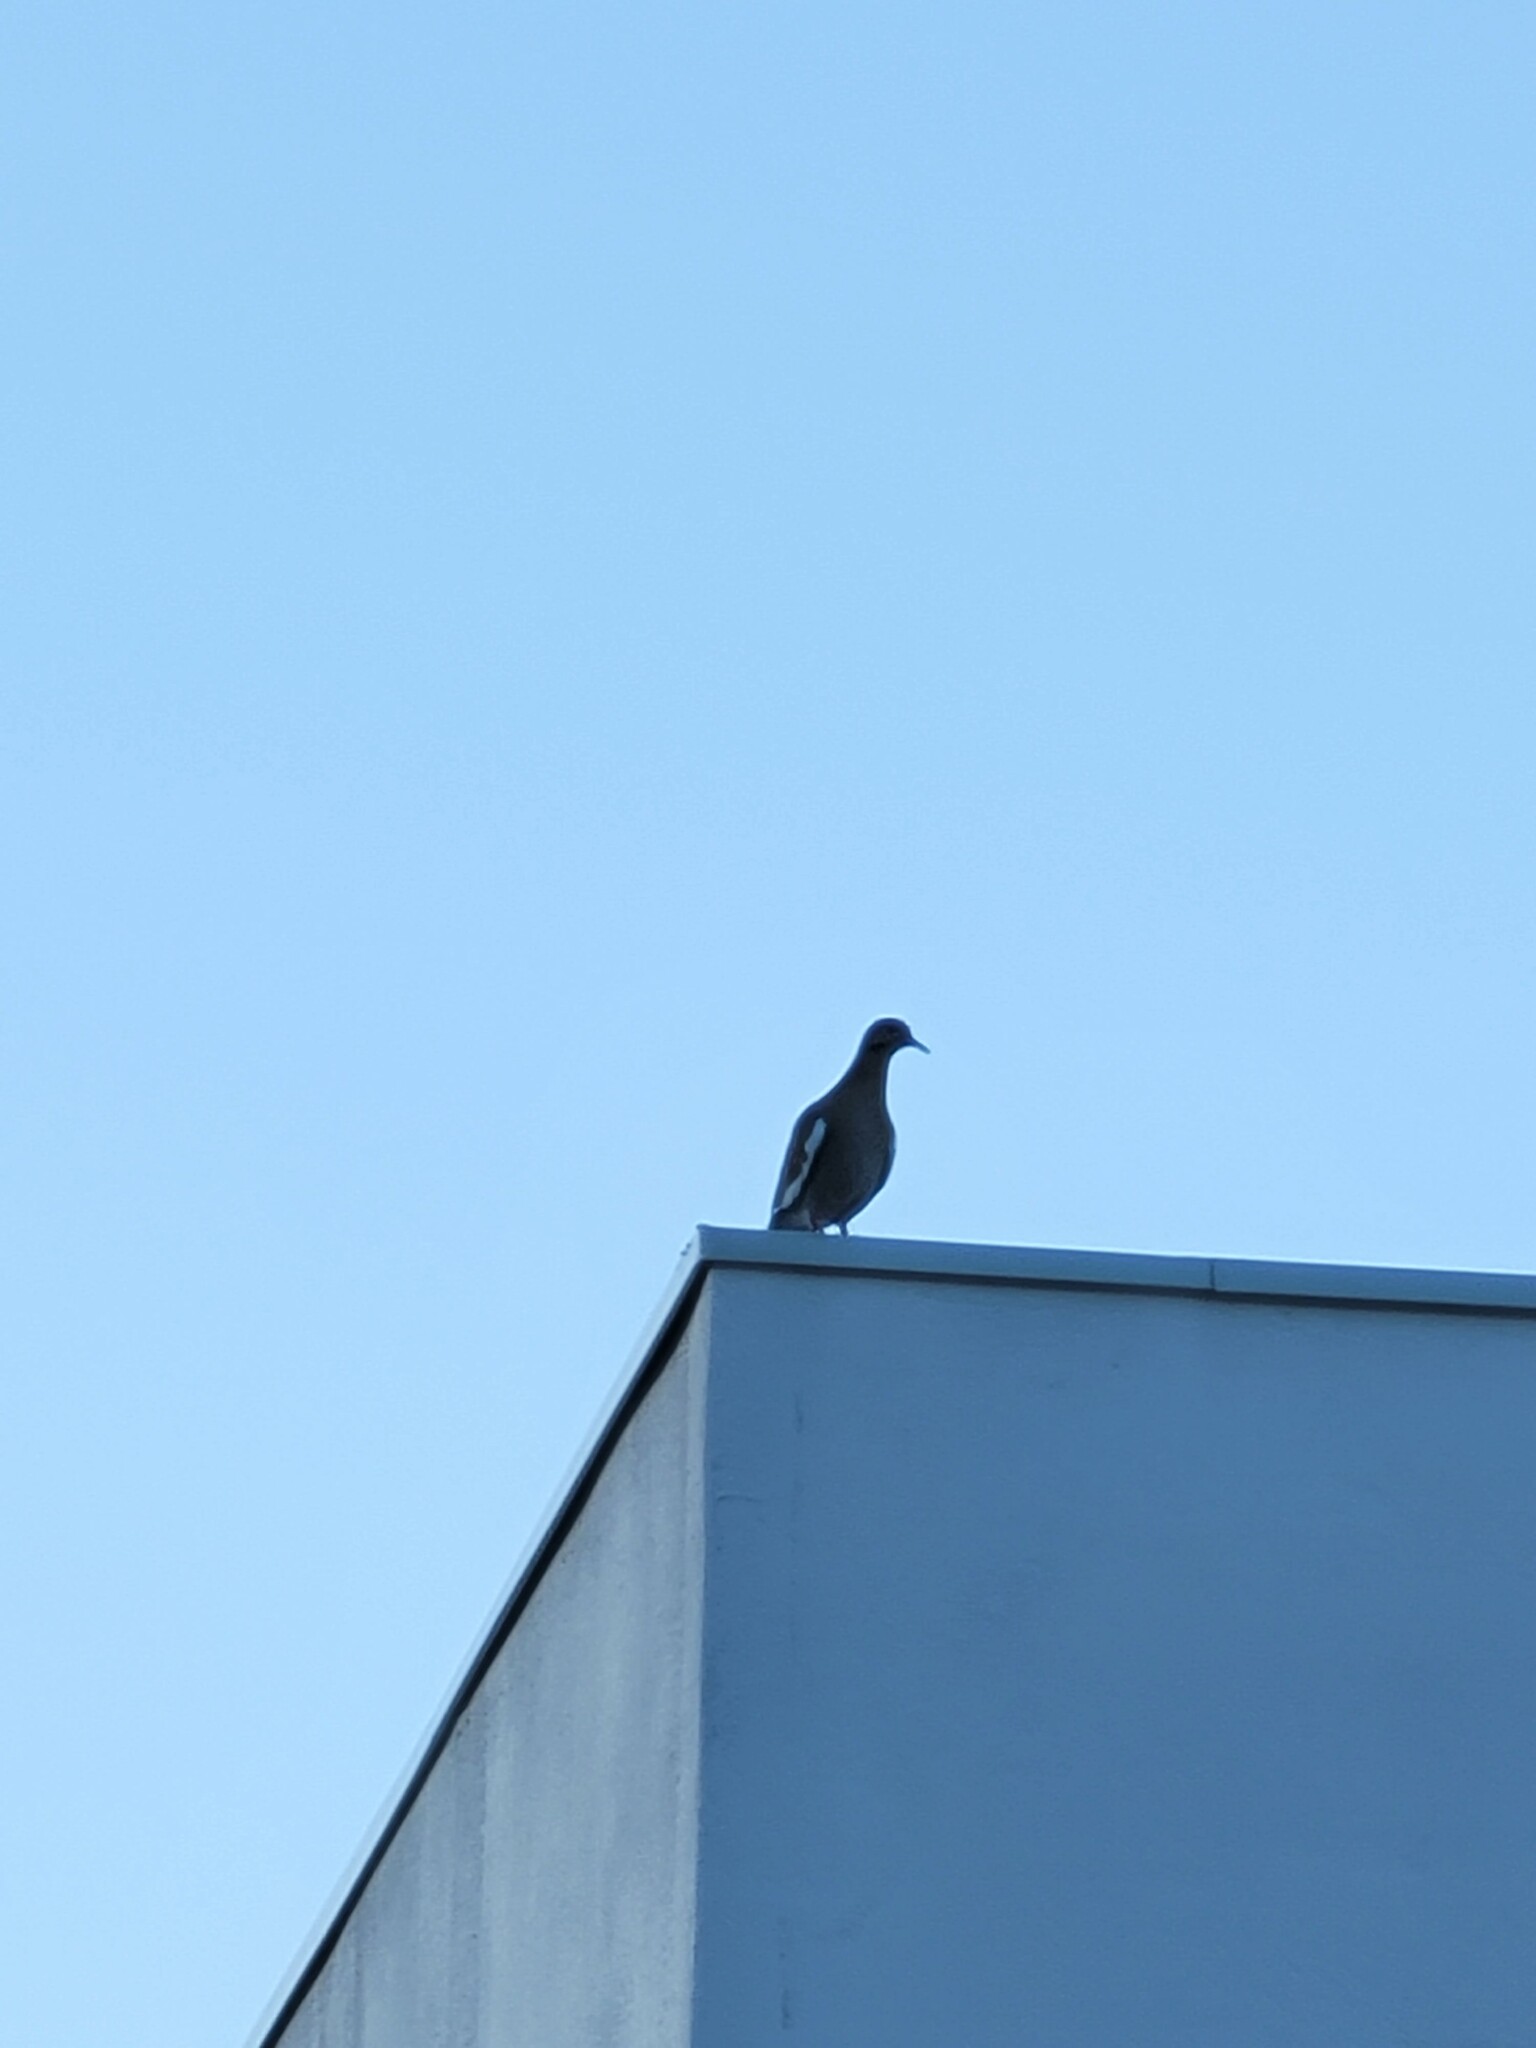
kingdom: Animalia
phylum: Chordata
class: Aves
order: Columbiformes
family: Columbidae
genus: Zenaida
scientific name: Zenaida asiatica
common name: White-winged dove
